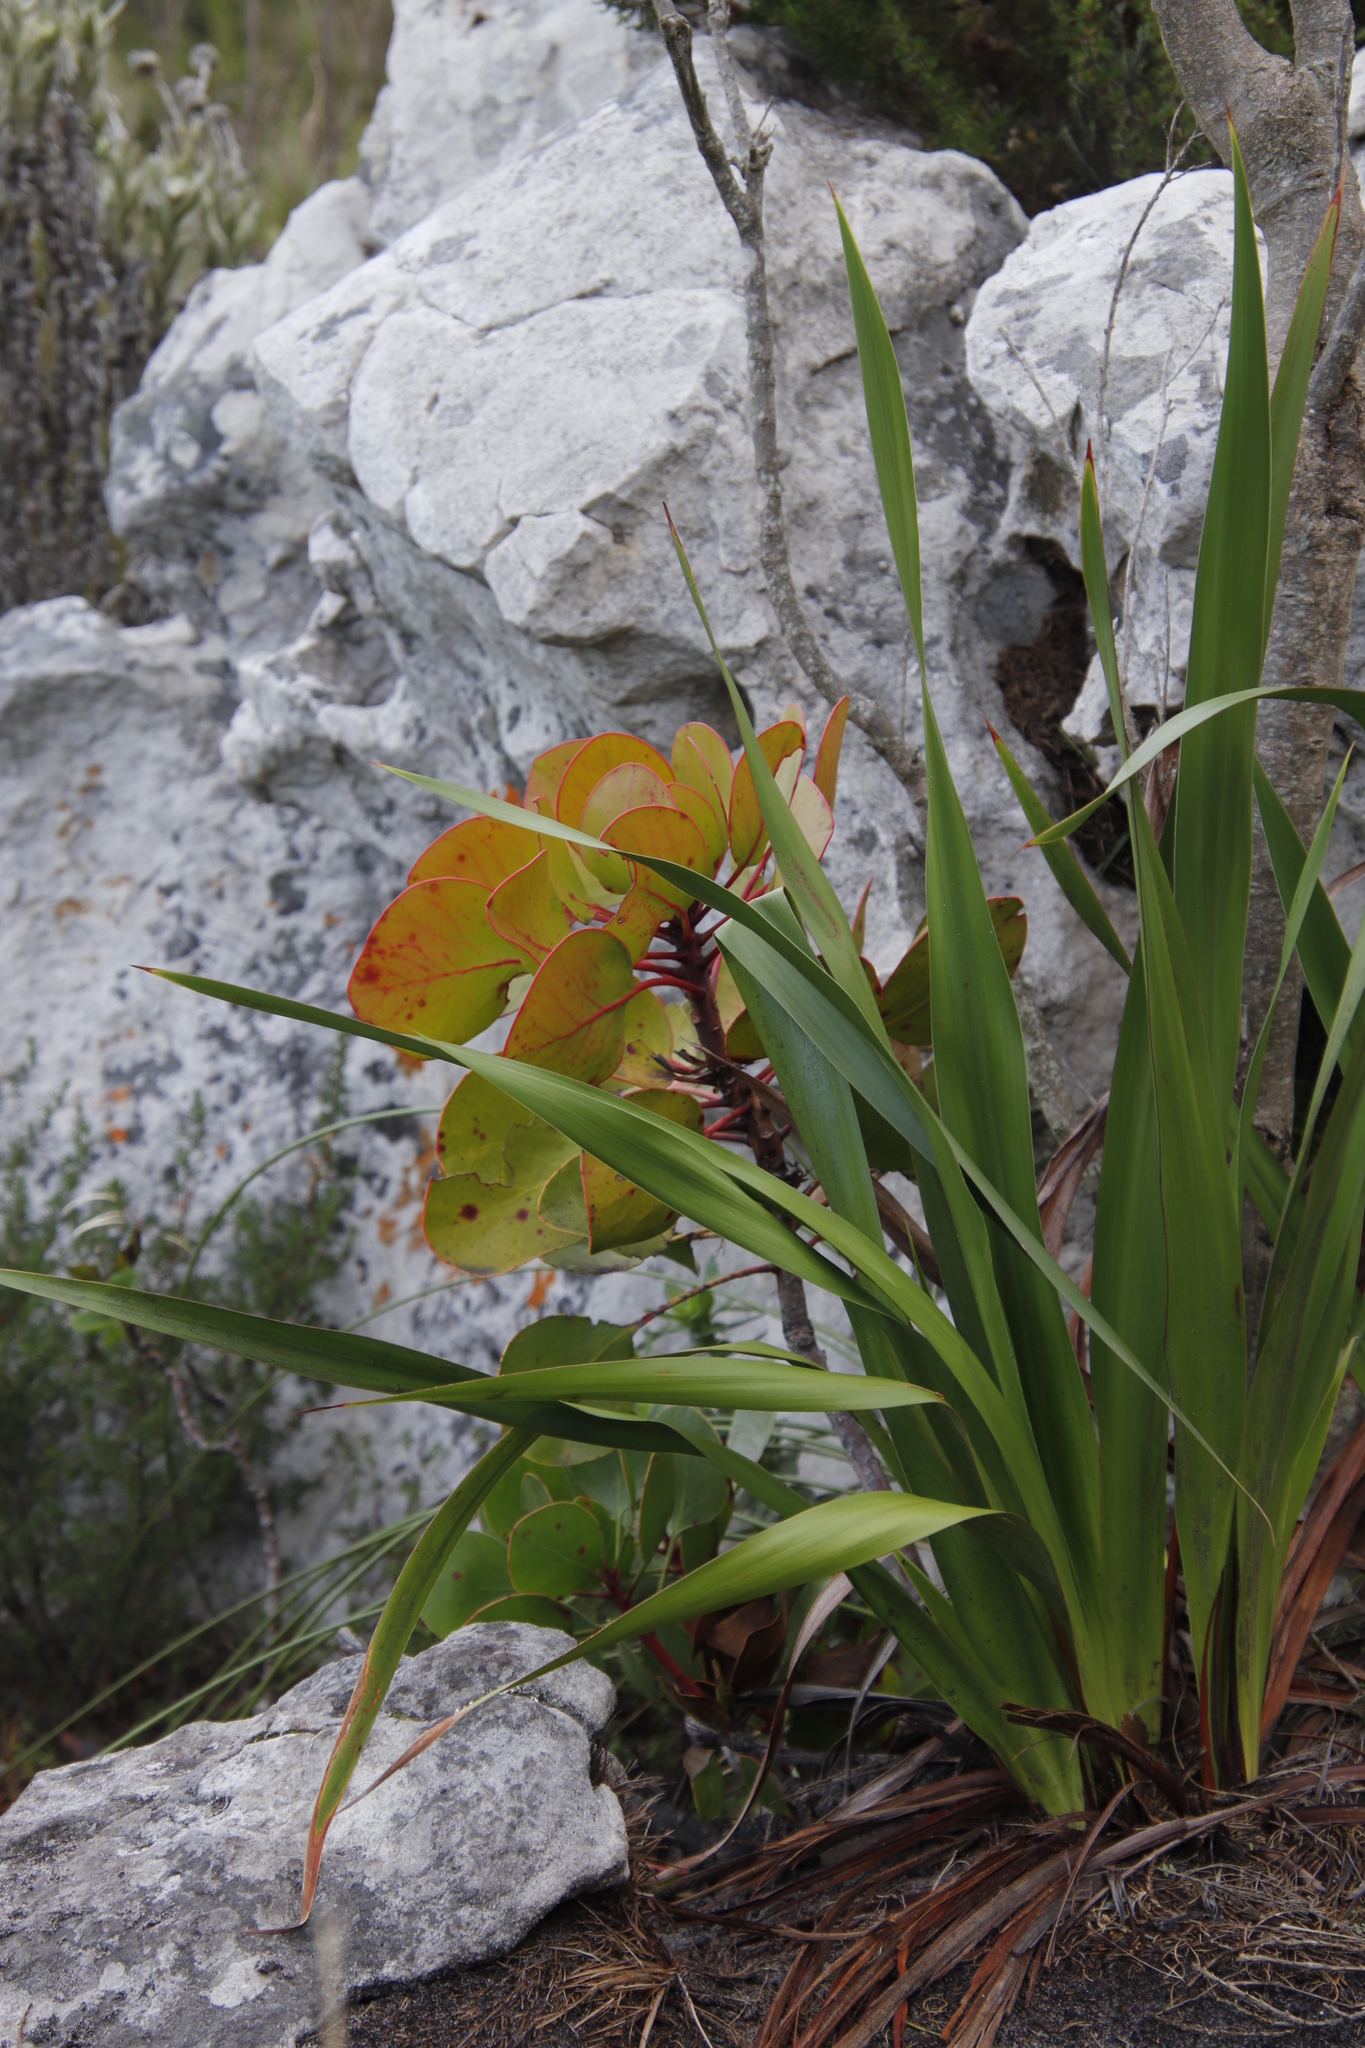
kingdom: Plantae
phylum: Tracheophyta
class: Magnoliopsida
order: Proteales
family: Proteaceae
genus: Protea
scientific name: Protea cynaroides
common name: King protea
